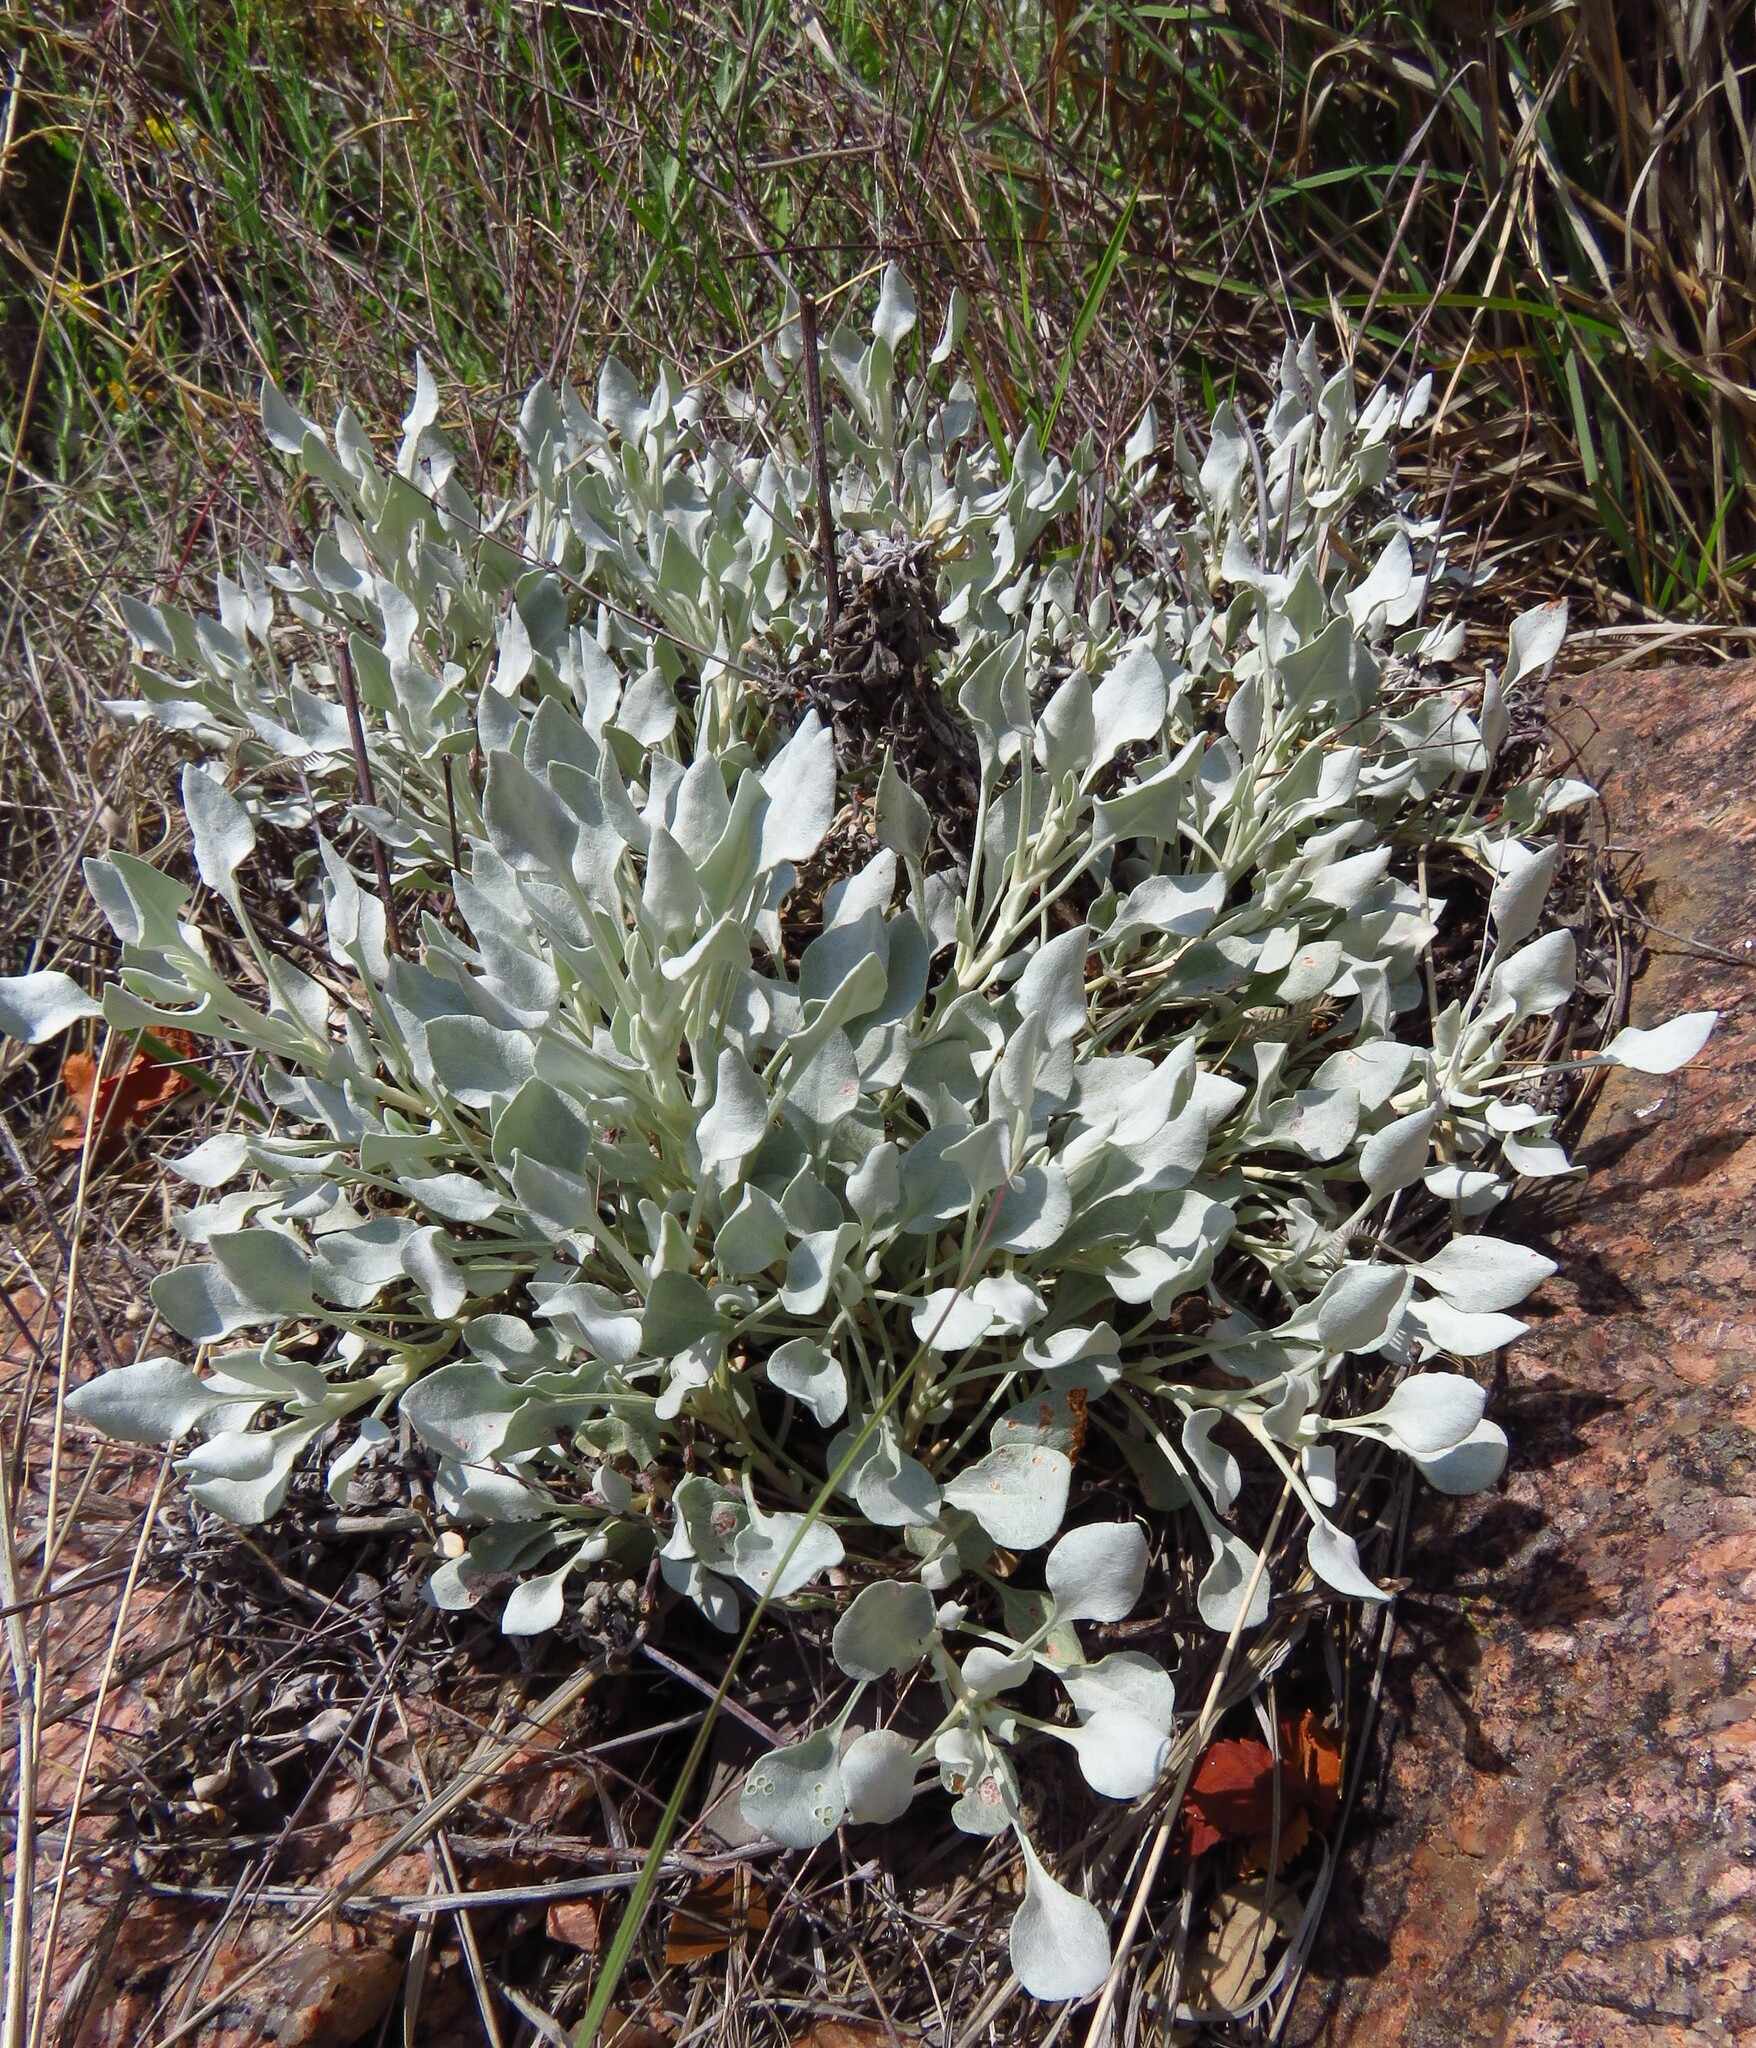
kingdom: Plantae
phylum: Tracheophyta
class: Magnoliopsida
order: Caryophyllales
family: Polygonaceae
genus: Eriogonum
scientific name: Eriogonum tenellum
